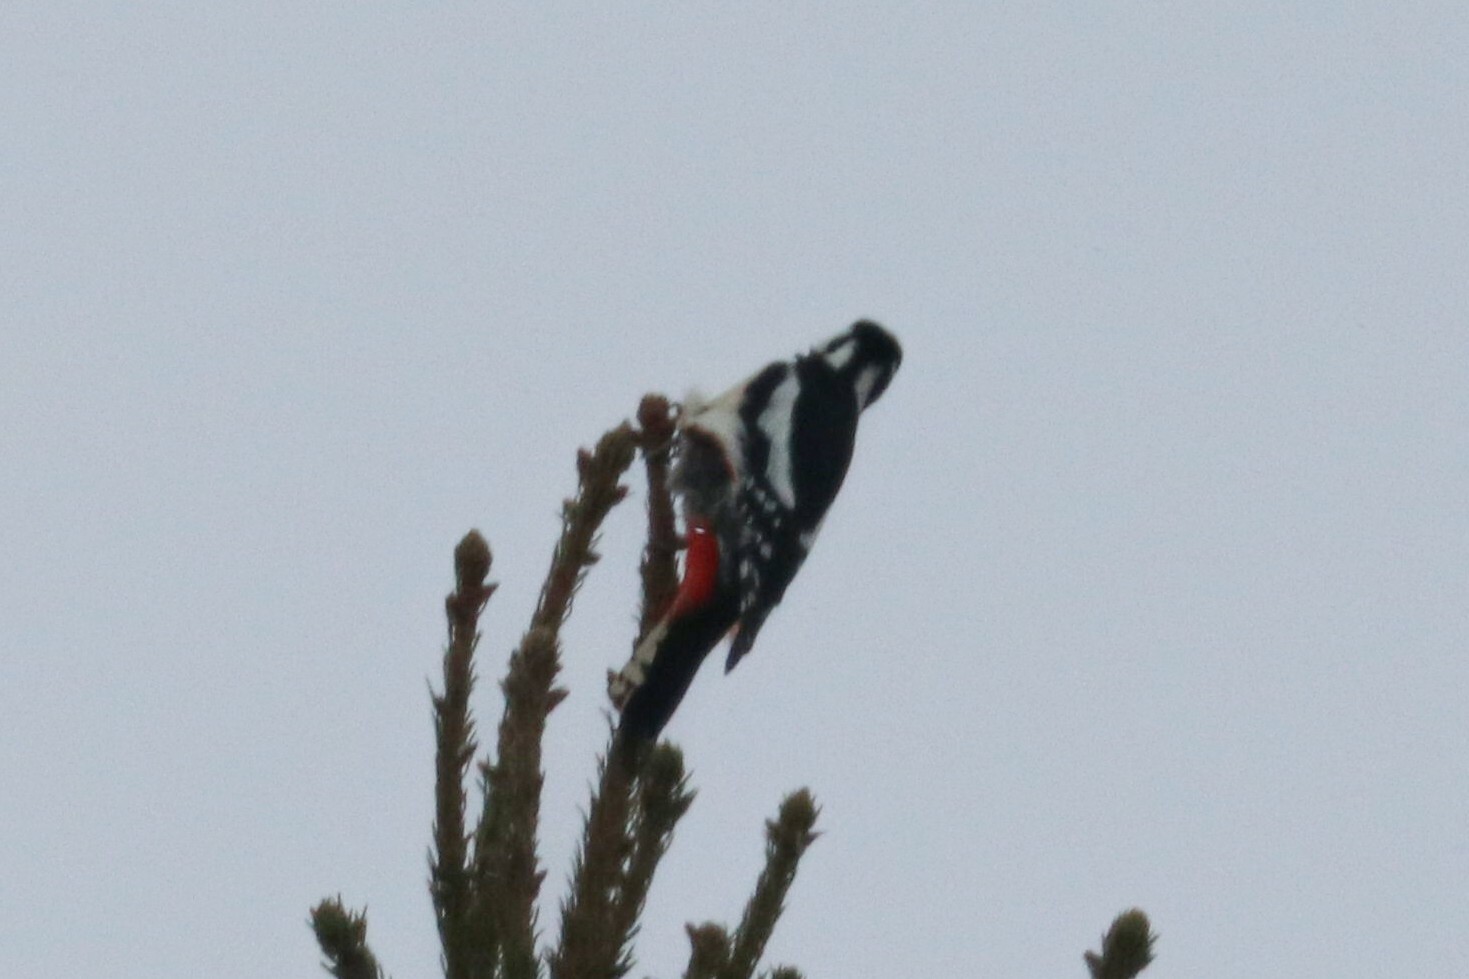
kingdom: Animalia
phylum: Chordata
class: Aves
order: Piciformes
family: Picidae
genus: Dendrocopos
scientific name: Dendrocopos major
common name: Great spotted woodpecker
